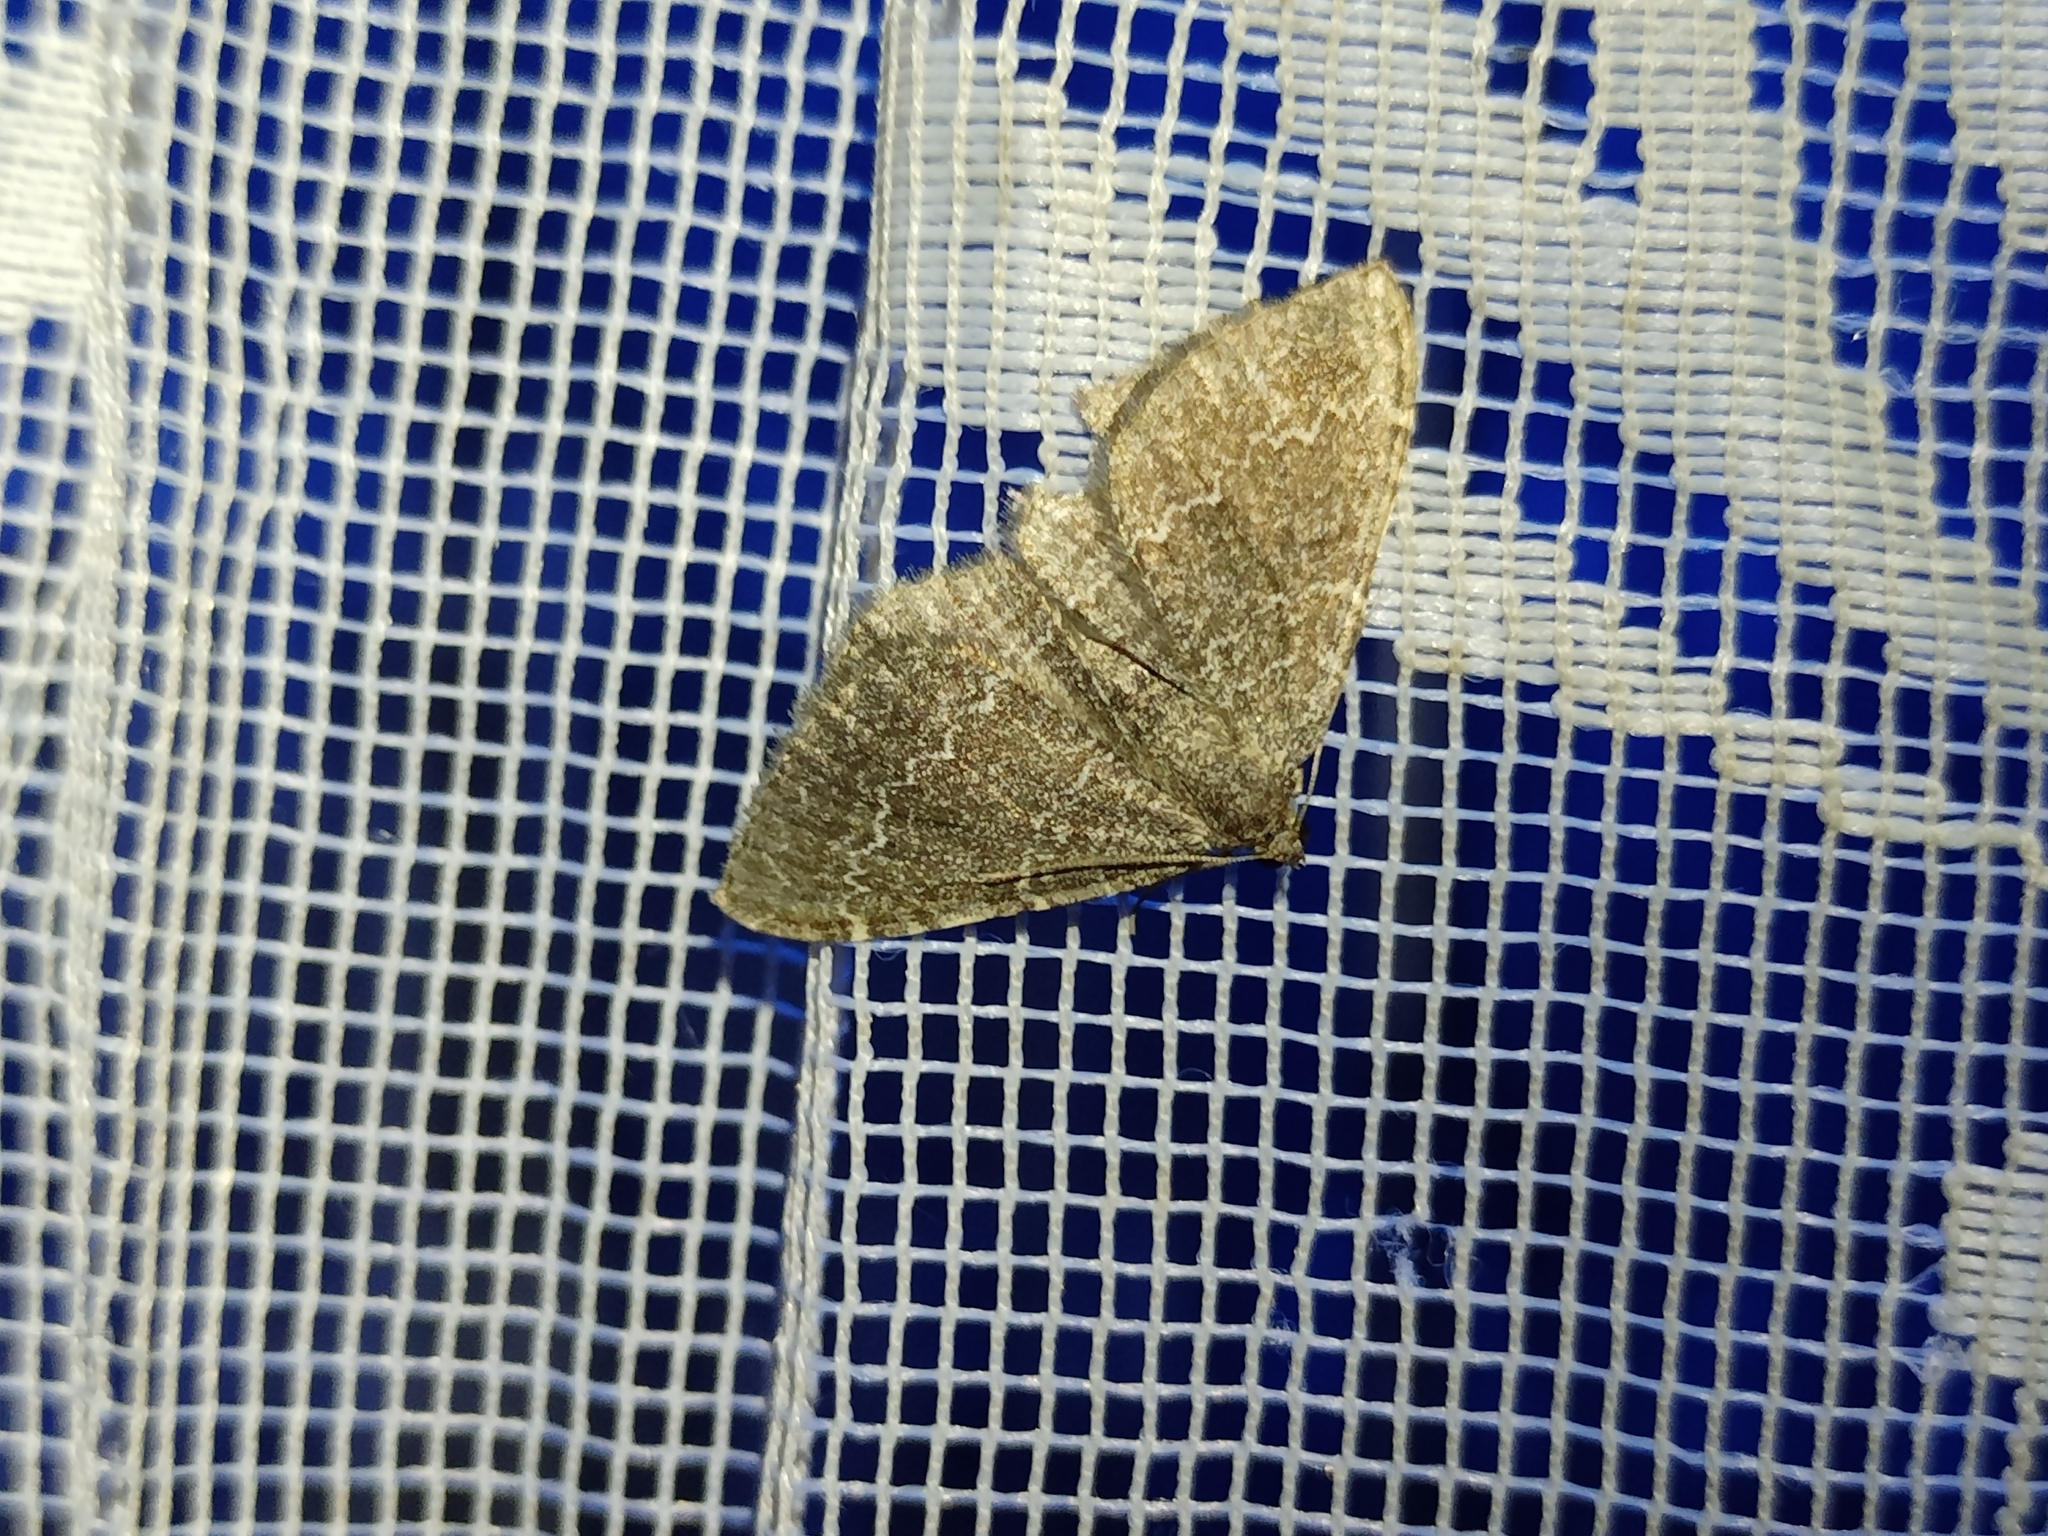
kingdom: Animalia
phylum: Arthropoda
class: Insecta
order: Lepidoptera
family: Geometridae
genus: Cataclysme
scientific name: Cataclysme riguata
